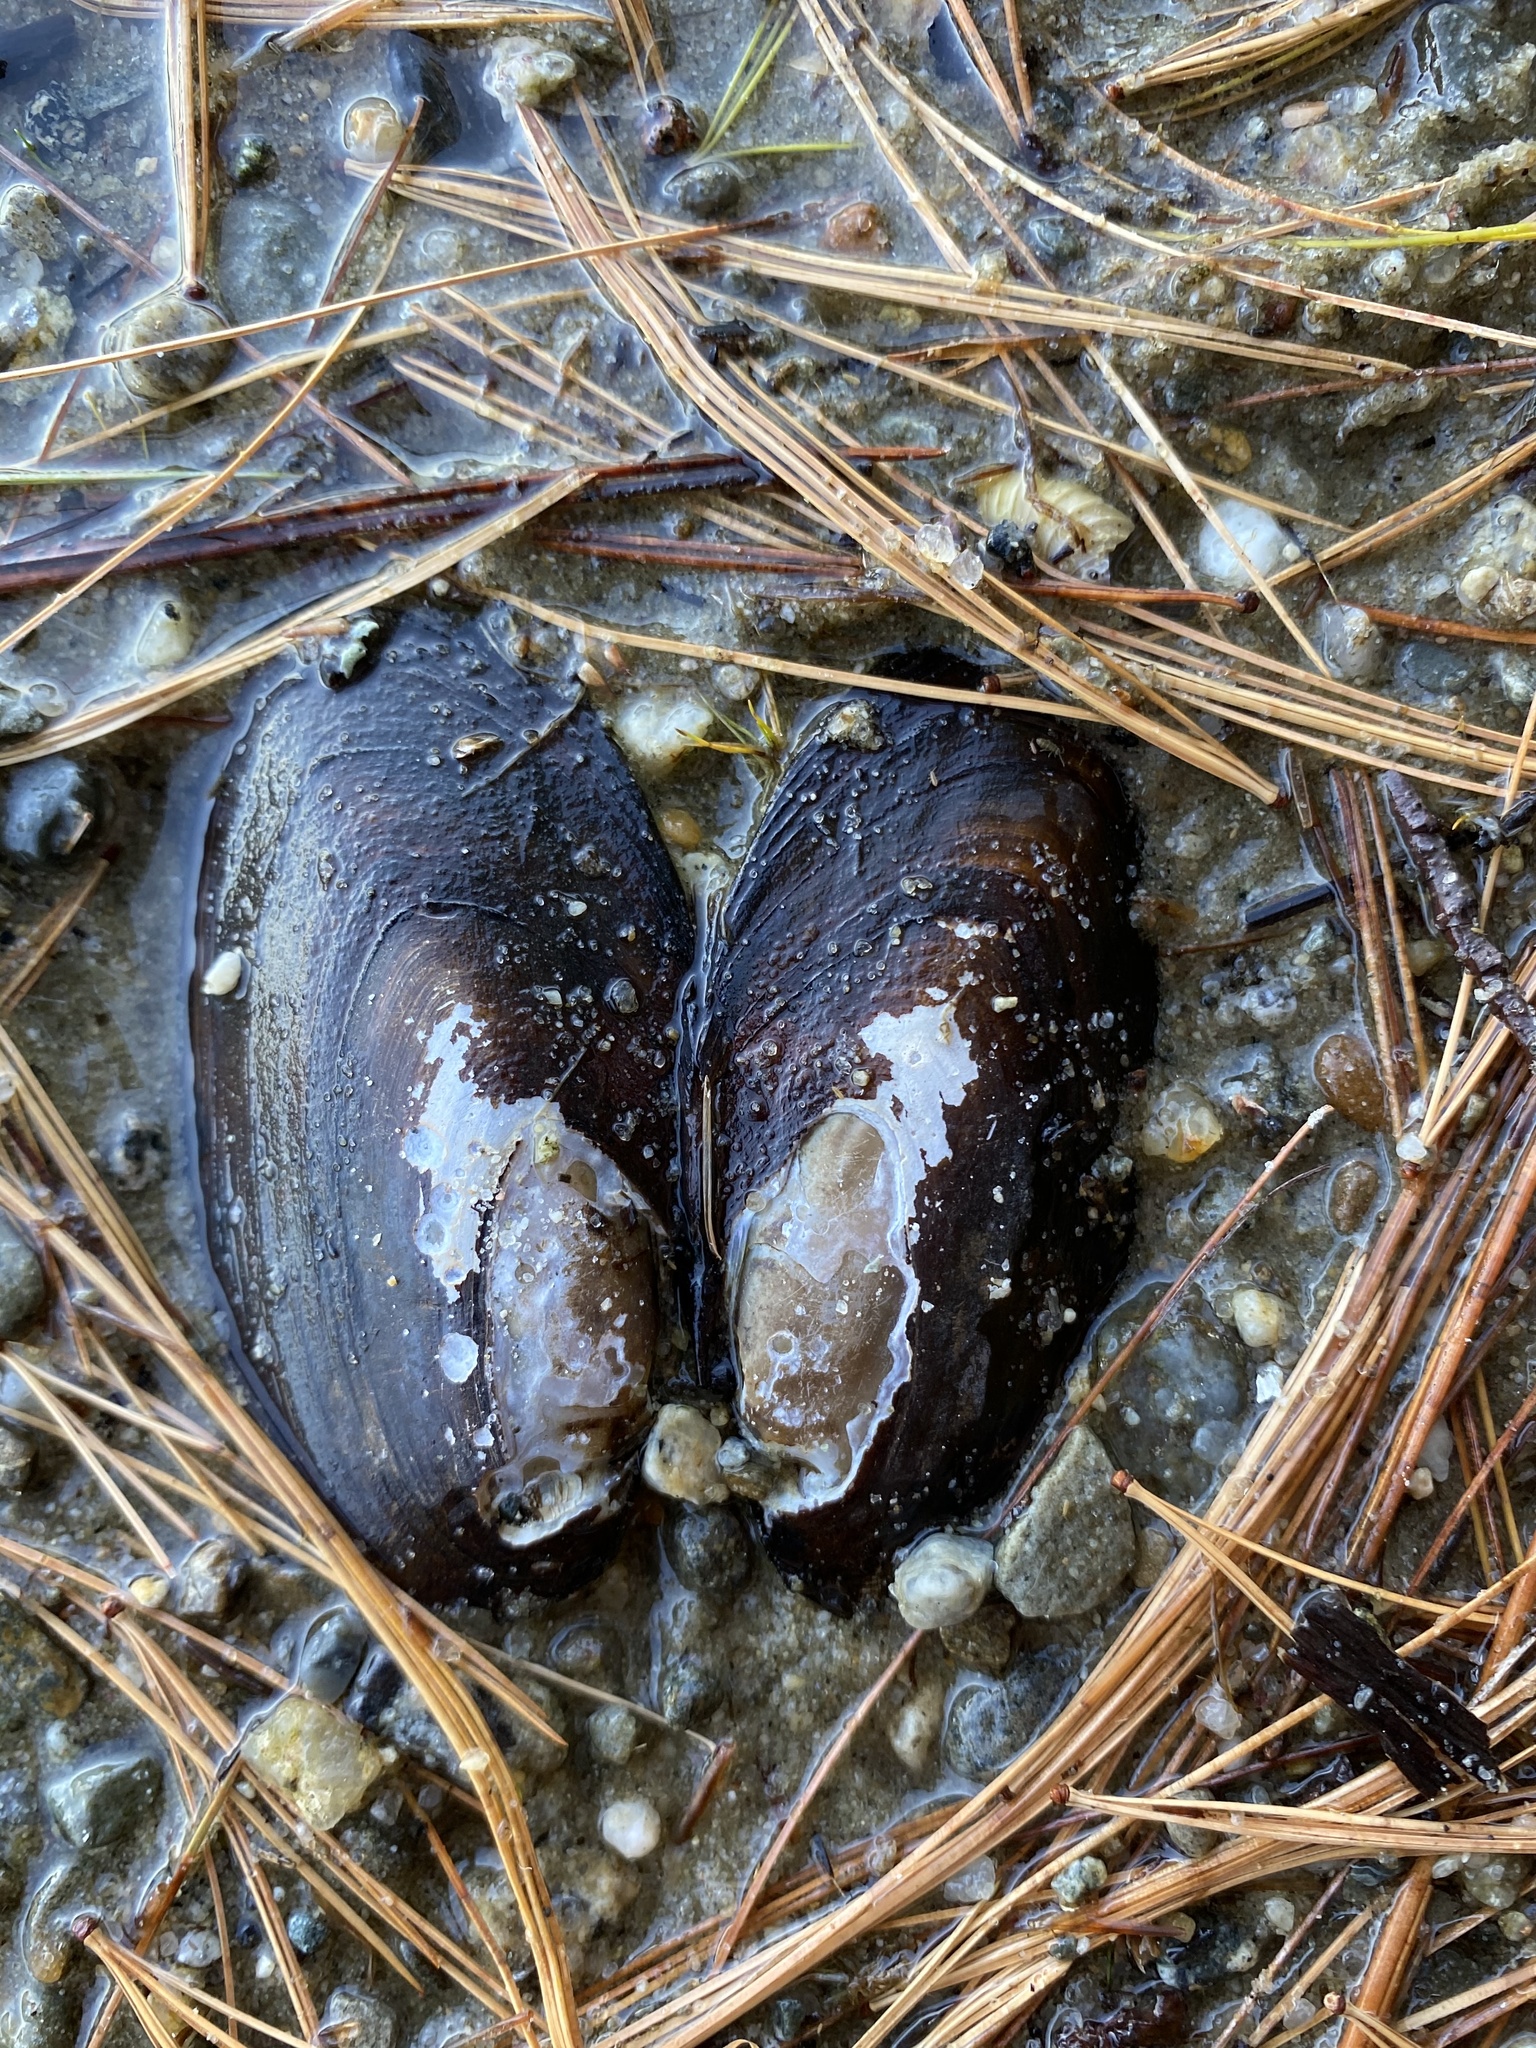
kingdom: Animalia
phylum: Mollusca
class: Bivalvia
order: Unionida
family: Unionidae
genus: Elliptio
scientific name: Elliptio complanata
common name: Eastern elliptio
